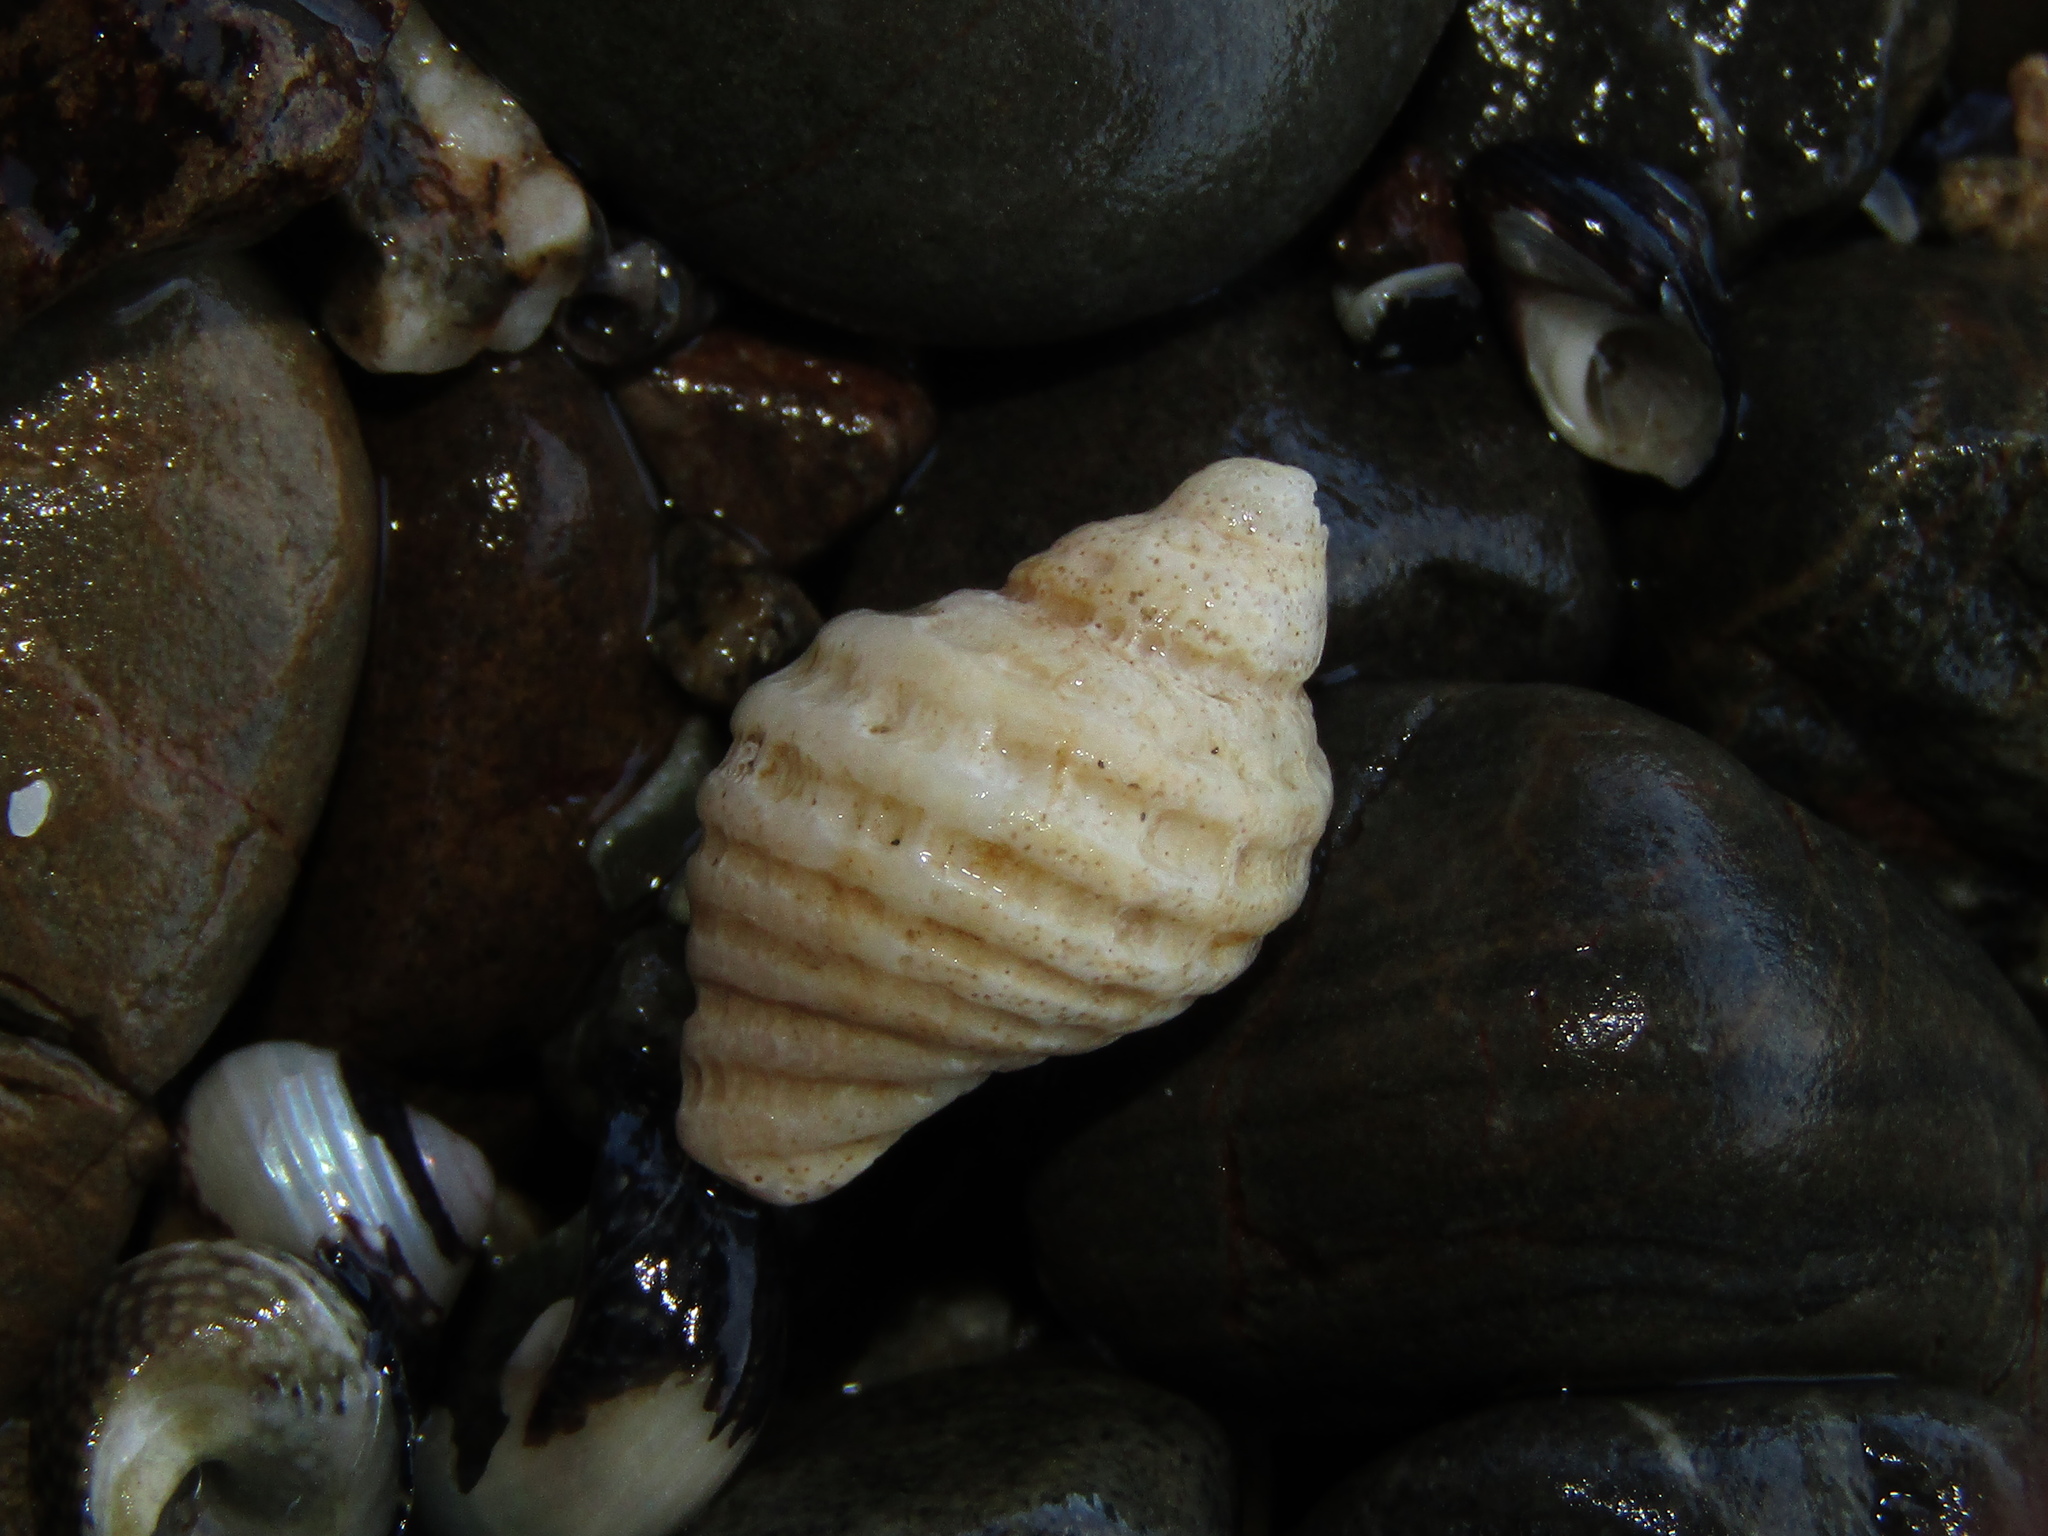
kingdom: Animalia
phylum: Mollusca
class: Gastropoda
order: Neogastropoda
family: Muricidae
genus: Haustrum
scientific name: Haustrum lacunosum
